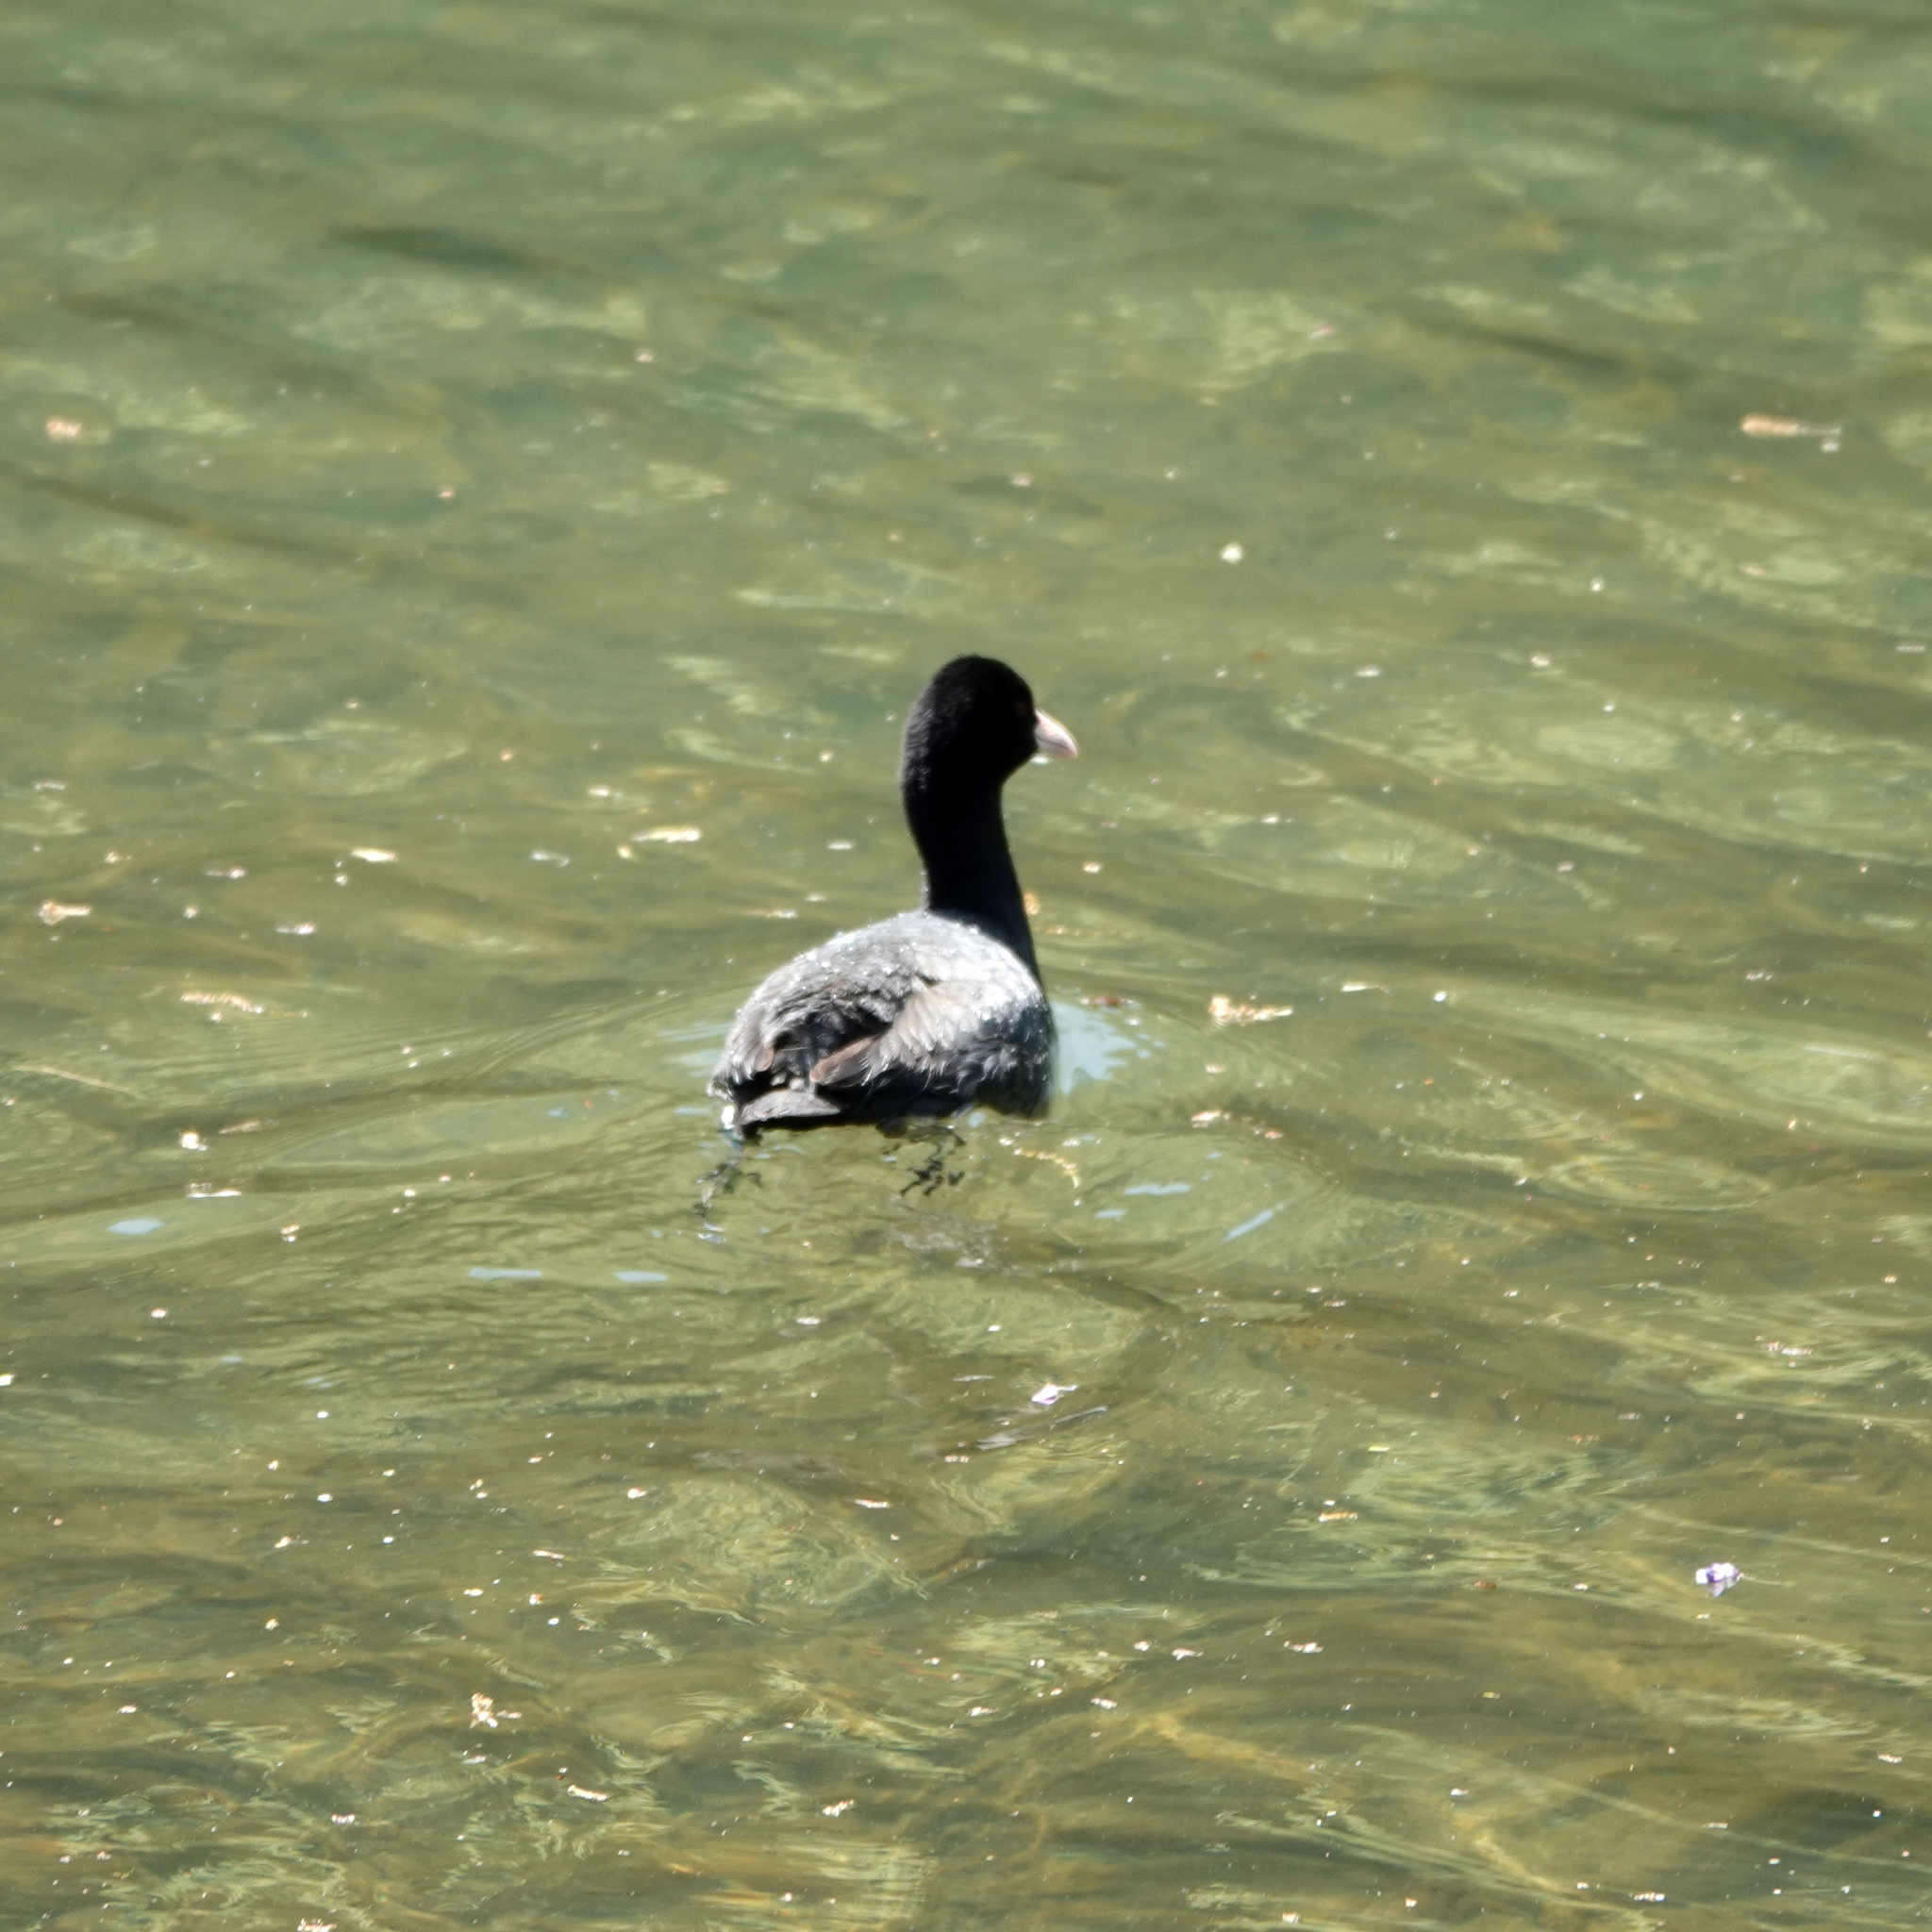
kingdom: Animalia
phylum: Chordata
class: Aves
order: Gruiformes
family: Rallidae
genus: Fulica
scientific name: Fulica atra
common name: Eurasian coot
